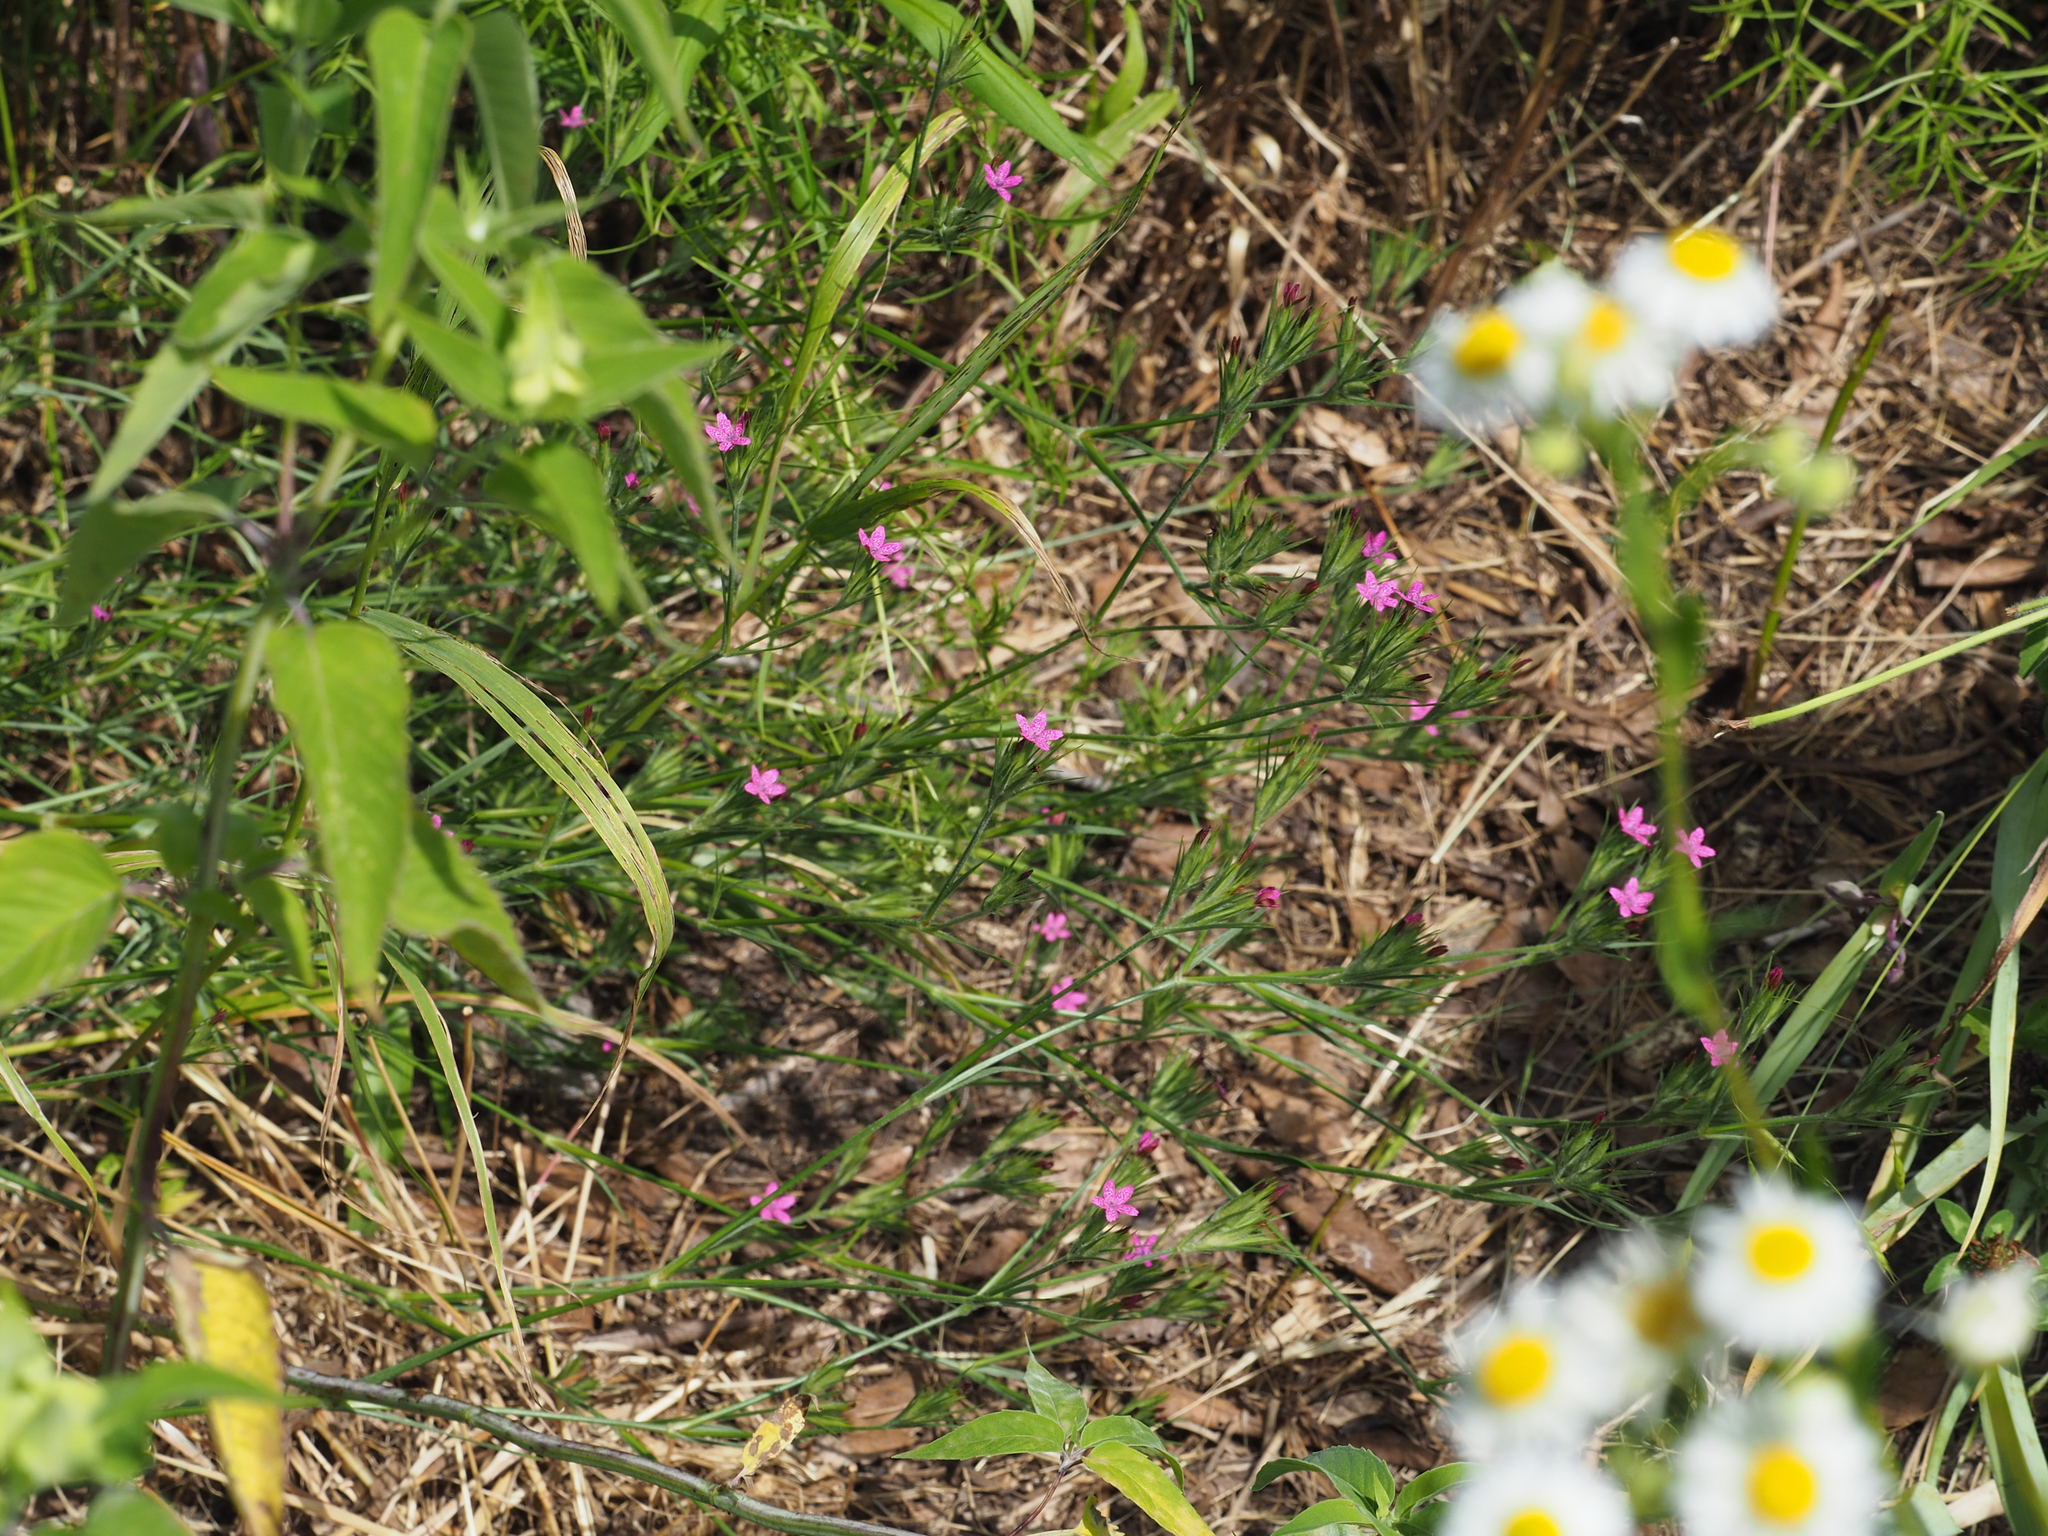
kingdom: Plantae
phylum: Tracheophyta
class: Magnoliopsida
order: Caryophyllales
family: Caryophyllaceae
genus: Dianthus
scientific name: Dianthus armeria
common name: Deptford pink
